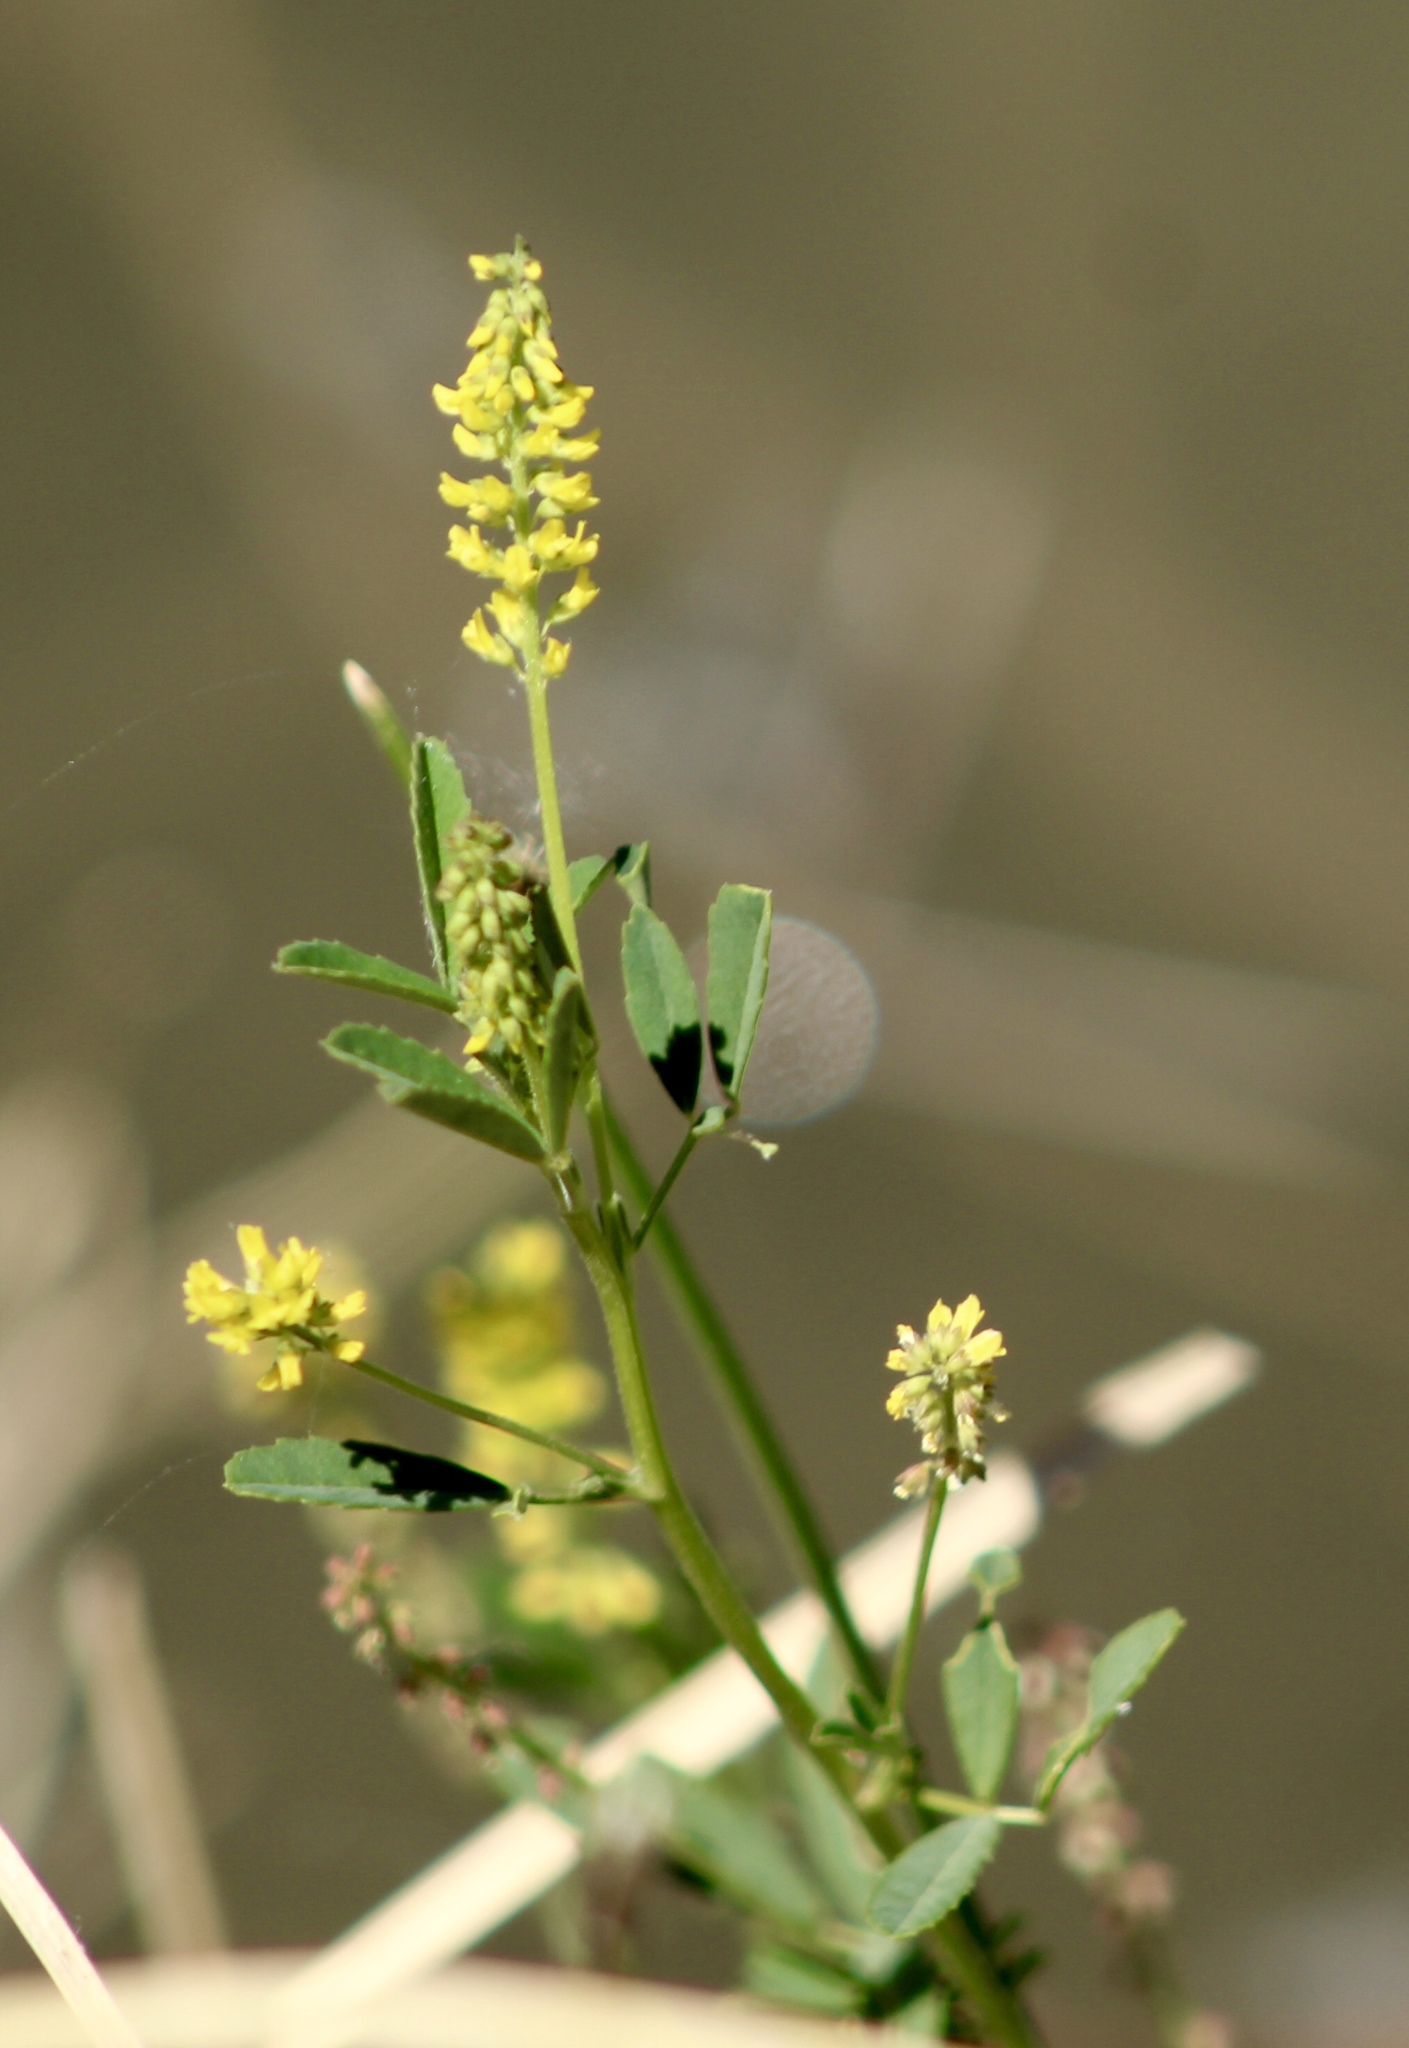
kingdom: Plantae
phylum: Tracheophyta
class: Magnoliopsida
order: Fabales
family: Fabaceae
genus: Melilotus
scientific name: Melilotus indicus
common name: Small melilot
